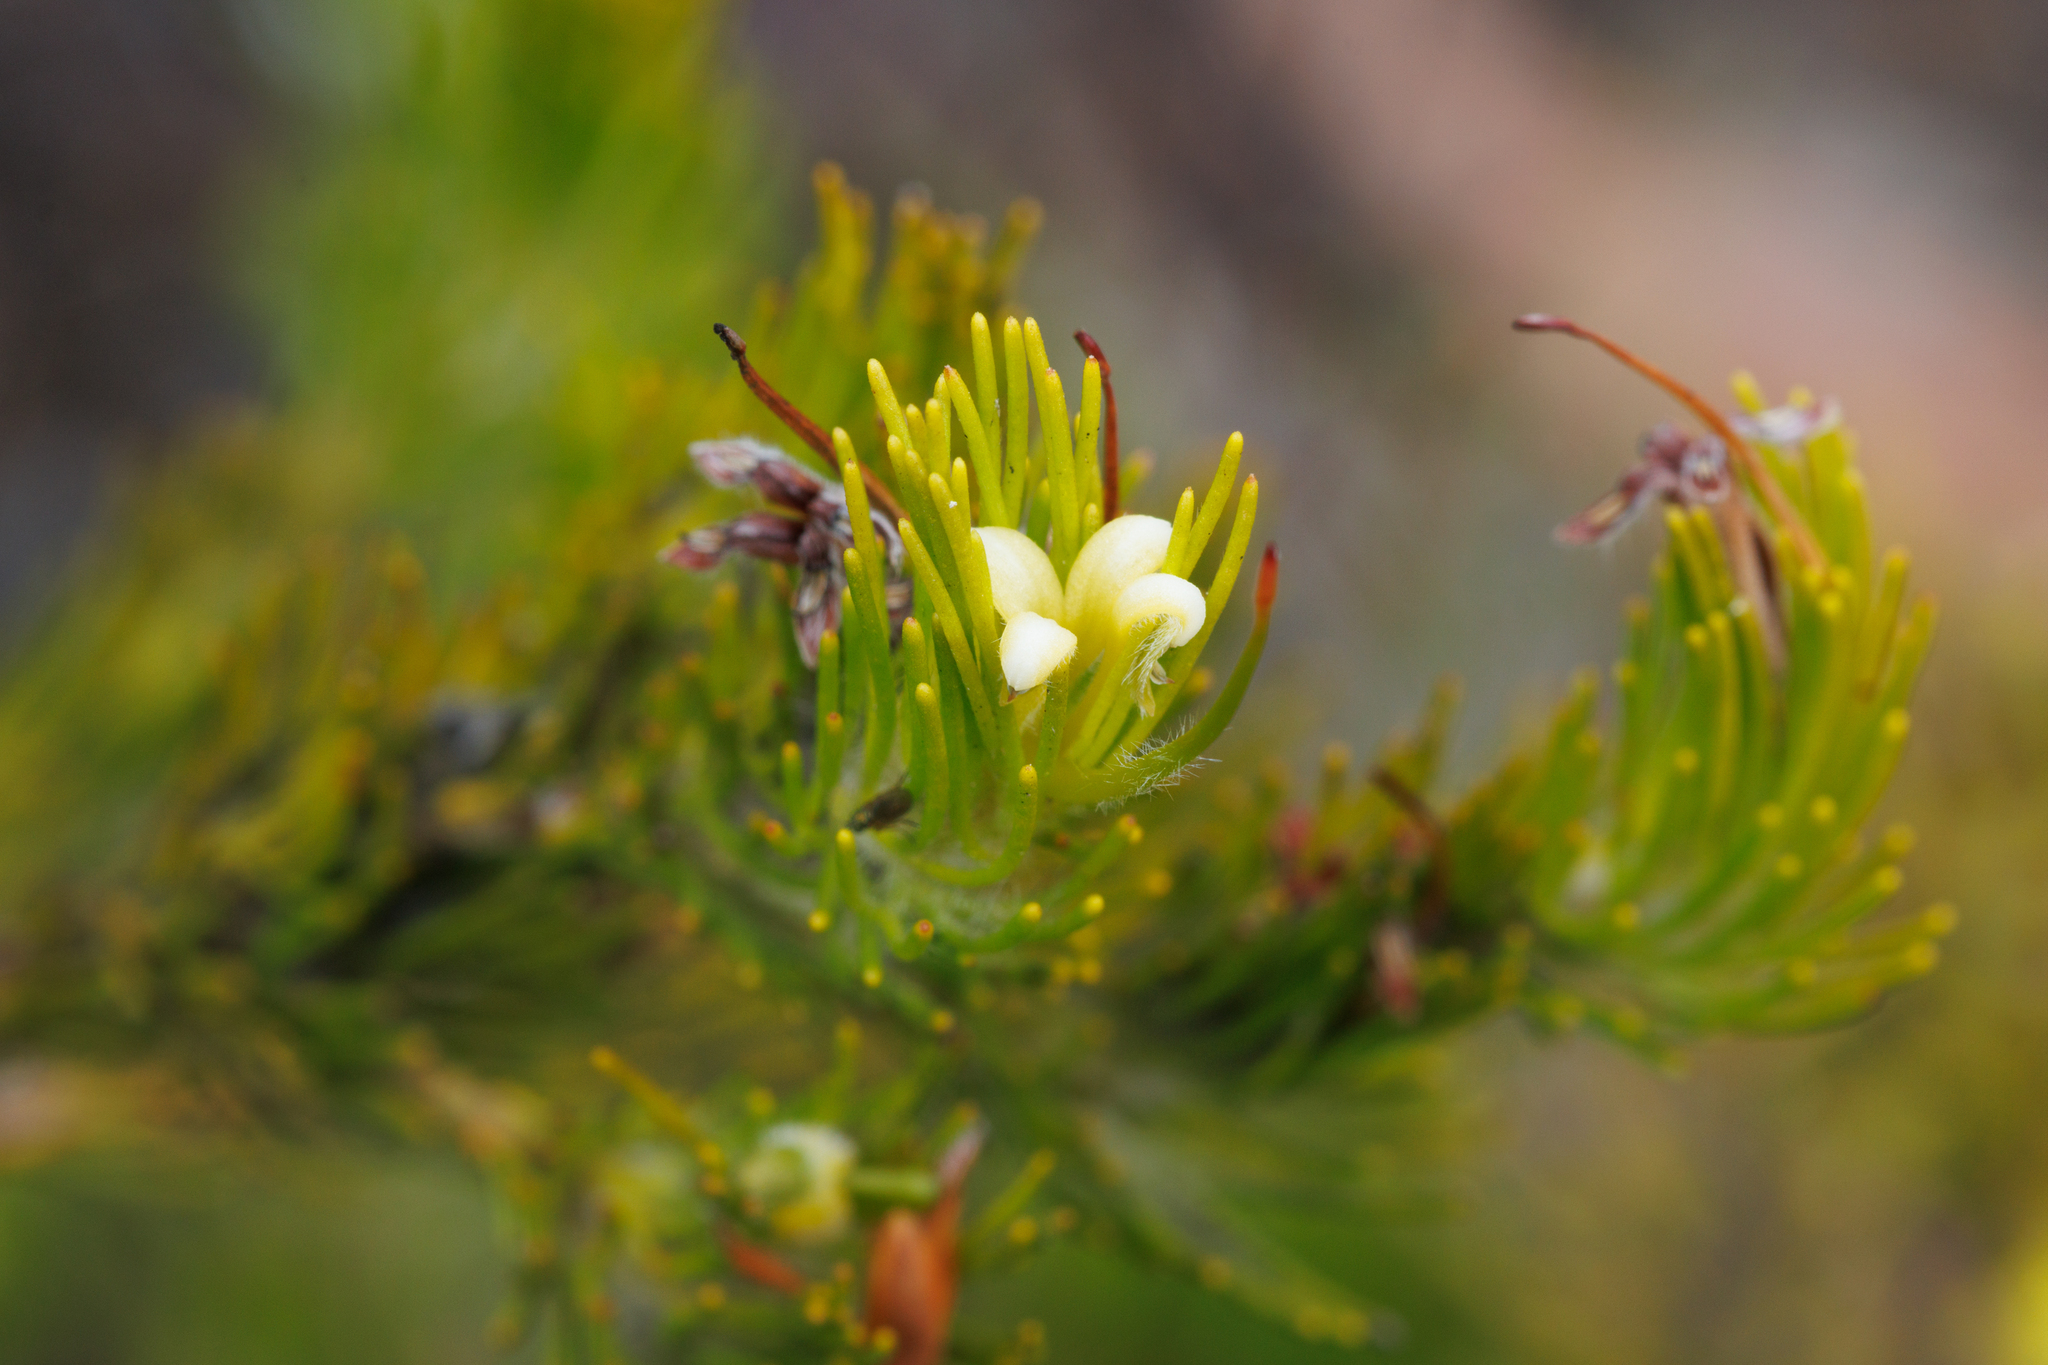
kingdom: Plantae
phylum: Tracheophyta
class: Magnoliopsida
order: Proteales
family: Proteaceae
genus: Adenanthos
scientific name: Adenanthos terminalis
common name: Yellow gland-flower
